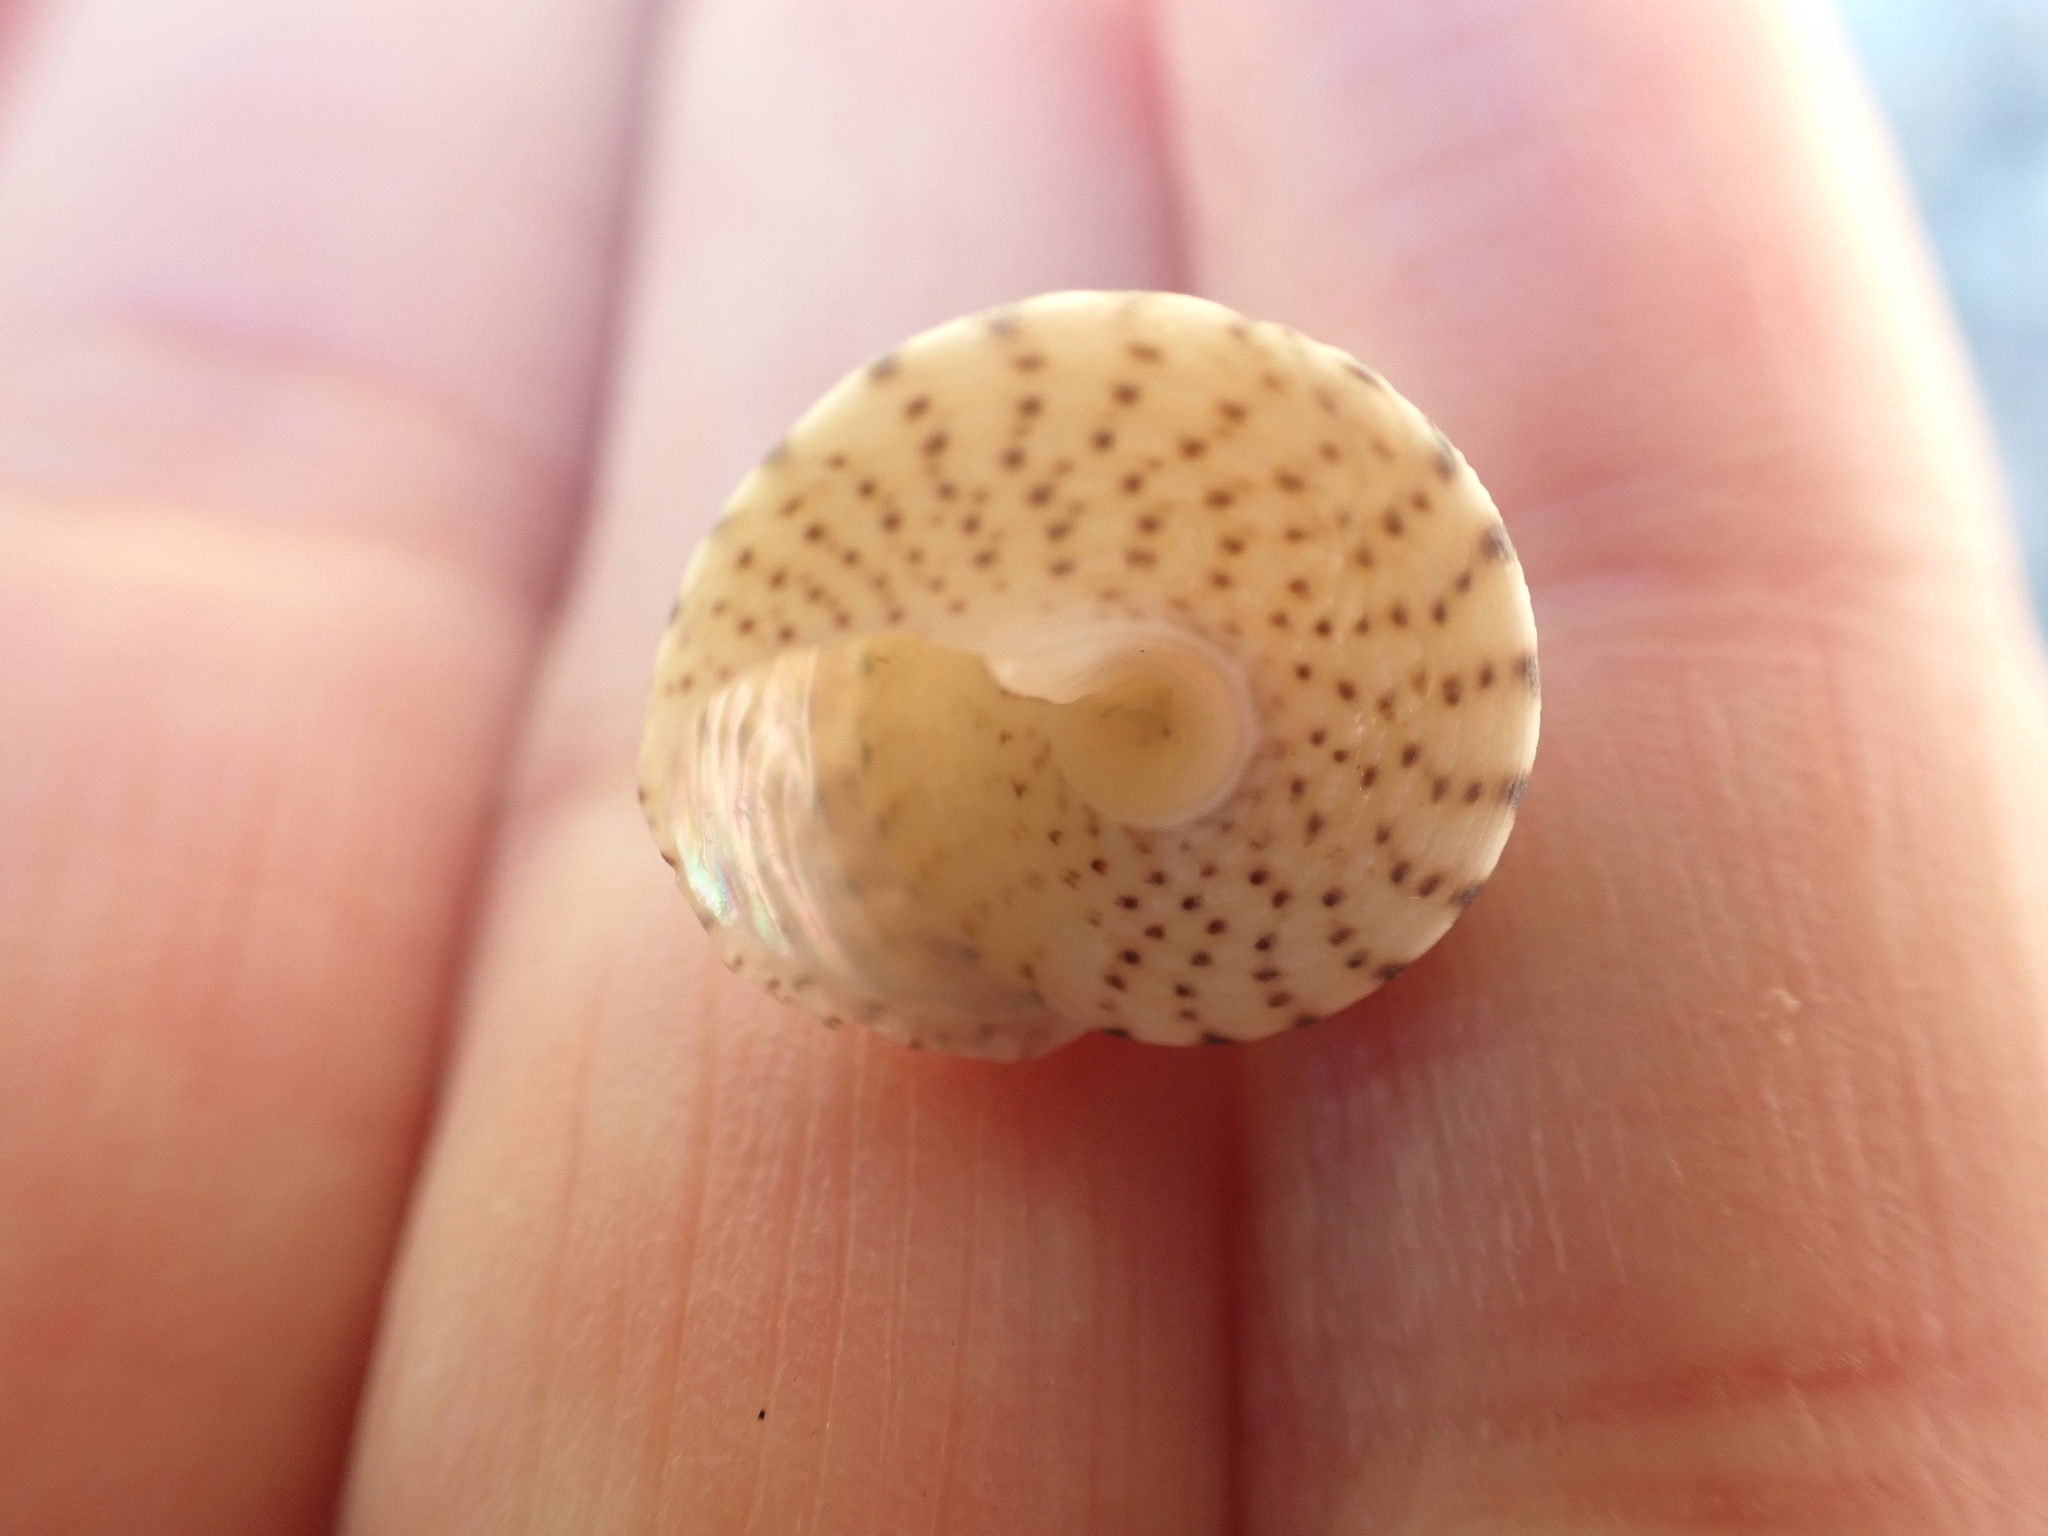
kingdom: Animalia
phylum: Mollusca
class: Gastropoda
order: Trochida
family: Trochidae
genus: Coelotrochus
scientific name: Coelotrochus tiaratus
